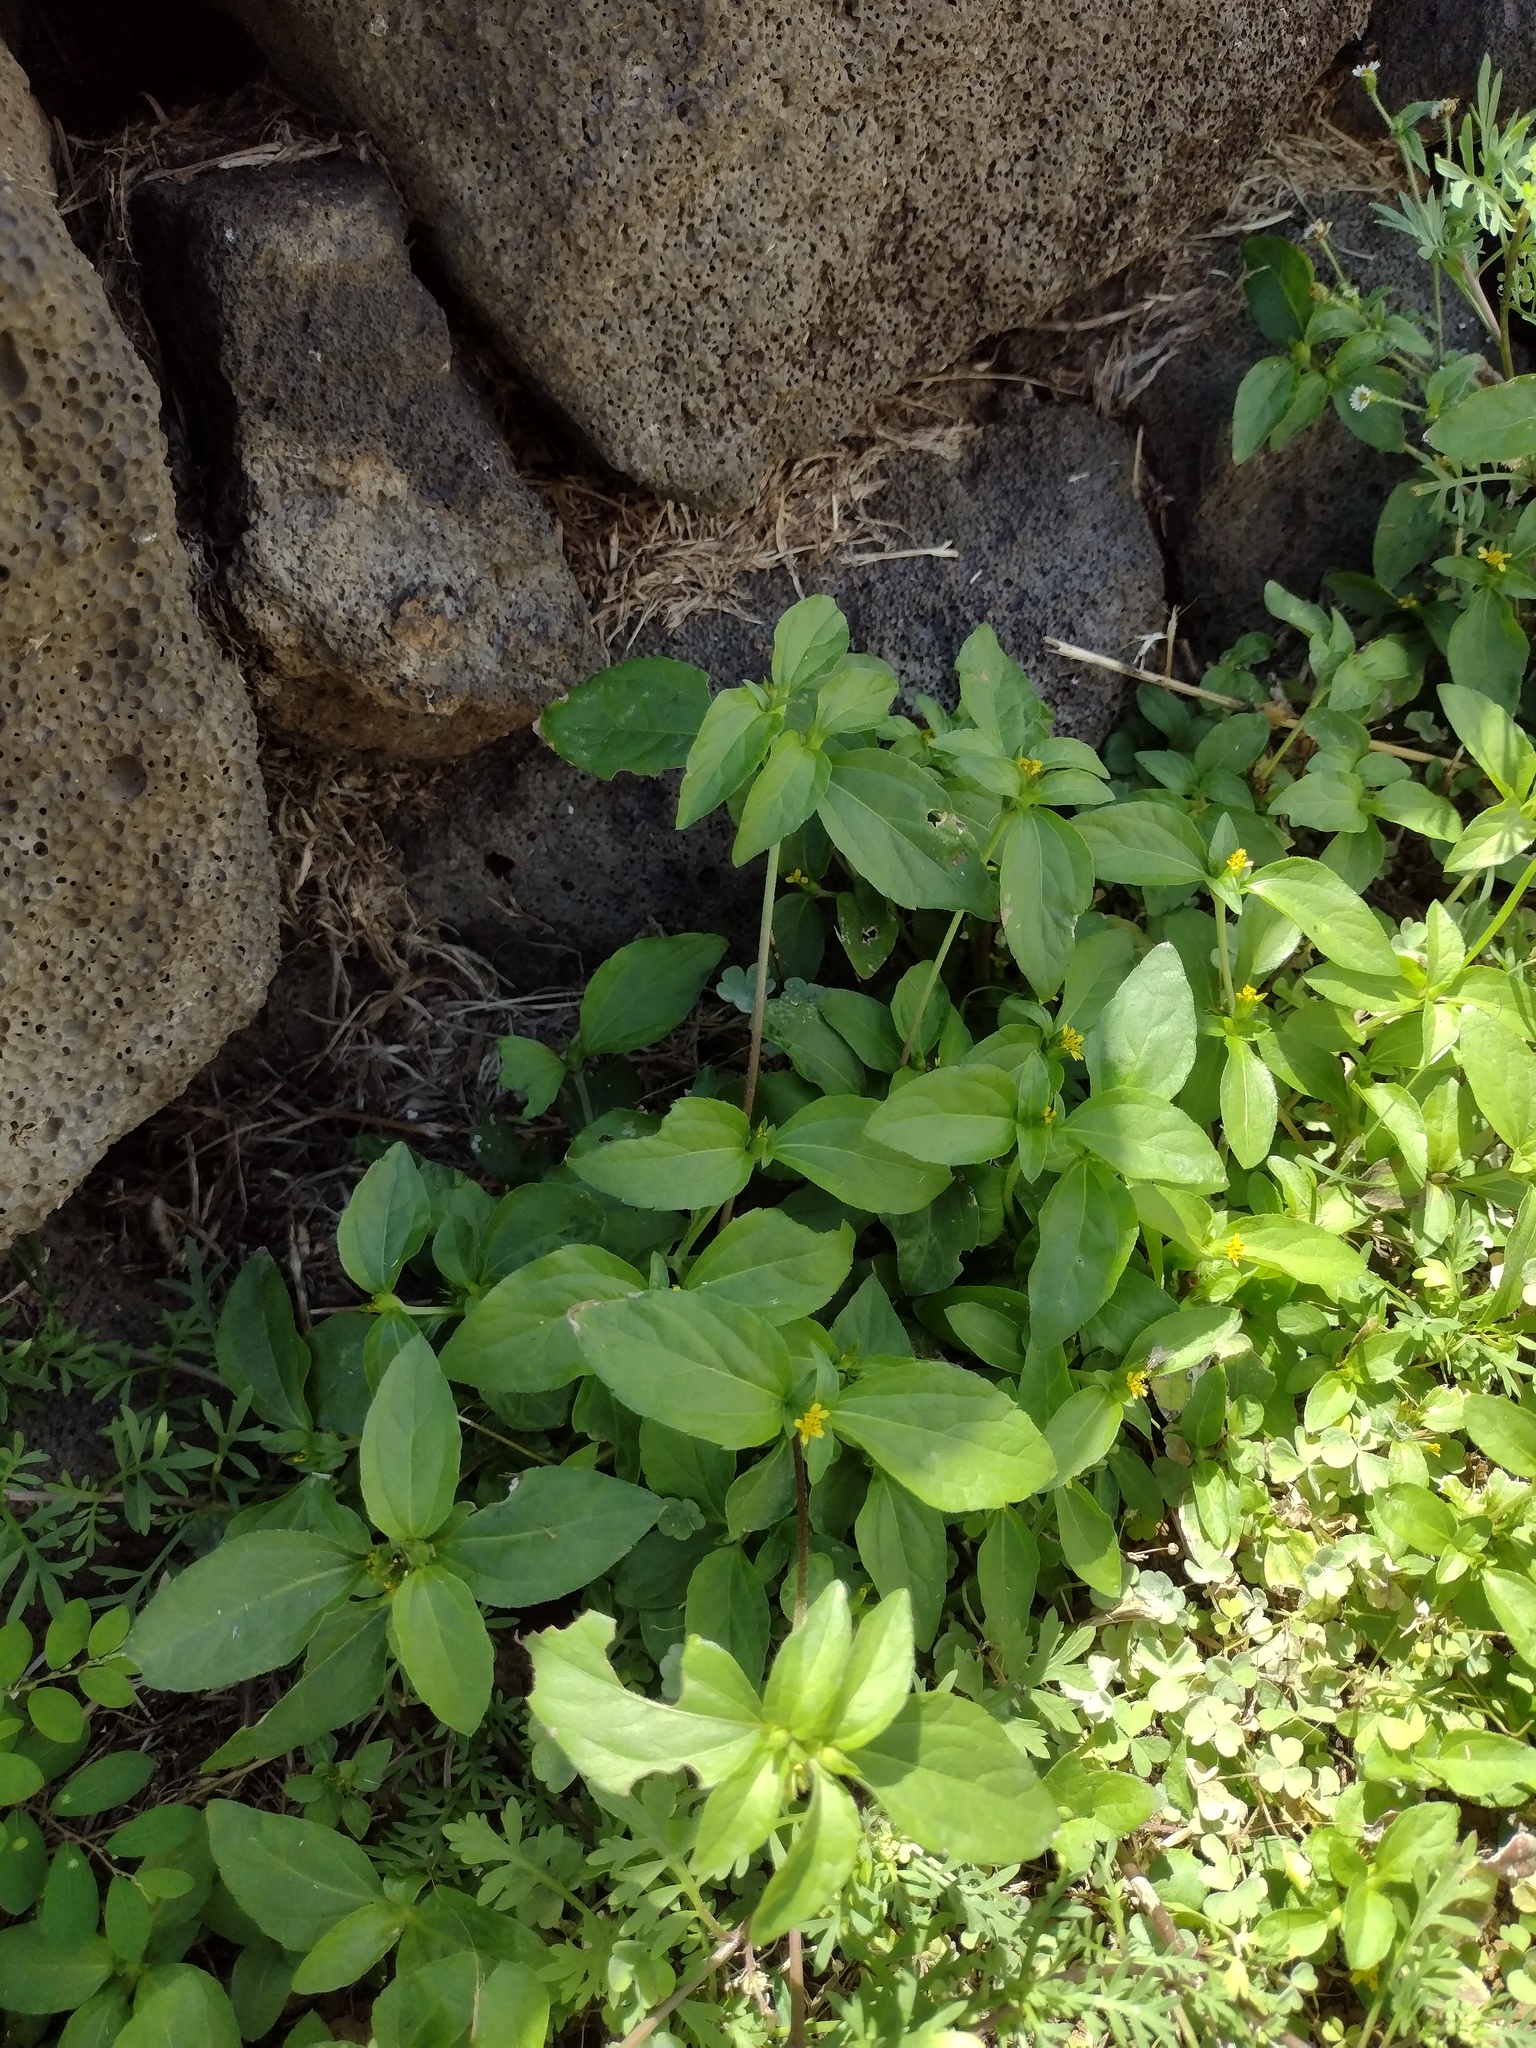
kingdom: Plantae
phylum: Tracheophyta
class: Magnoliopsida
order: Asterales
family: Asteraceae
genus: Calyptocarpus
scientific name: Calyptocarpus vialis
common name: Straggler daisy
